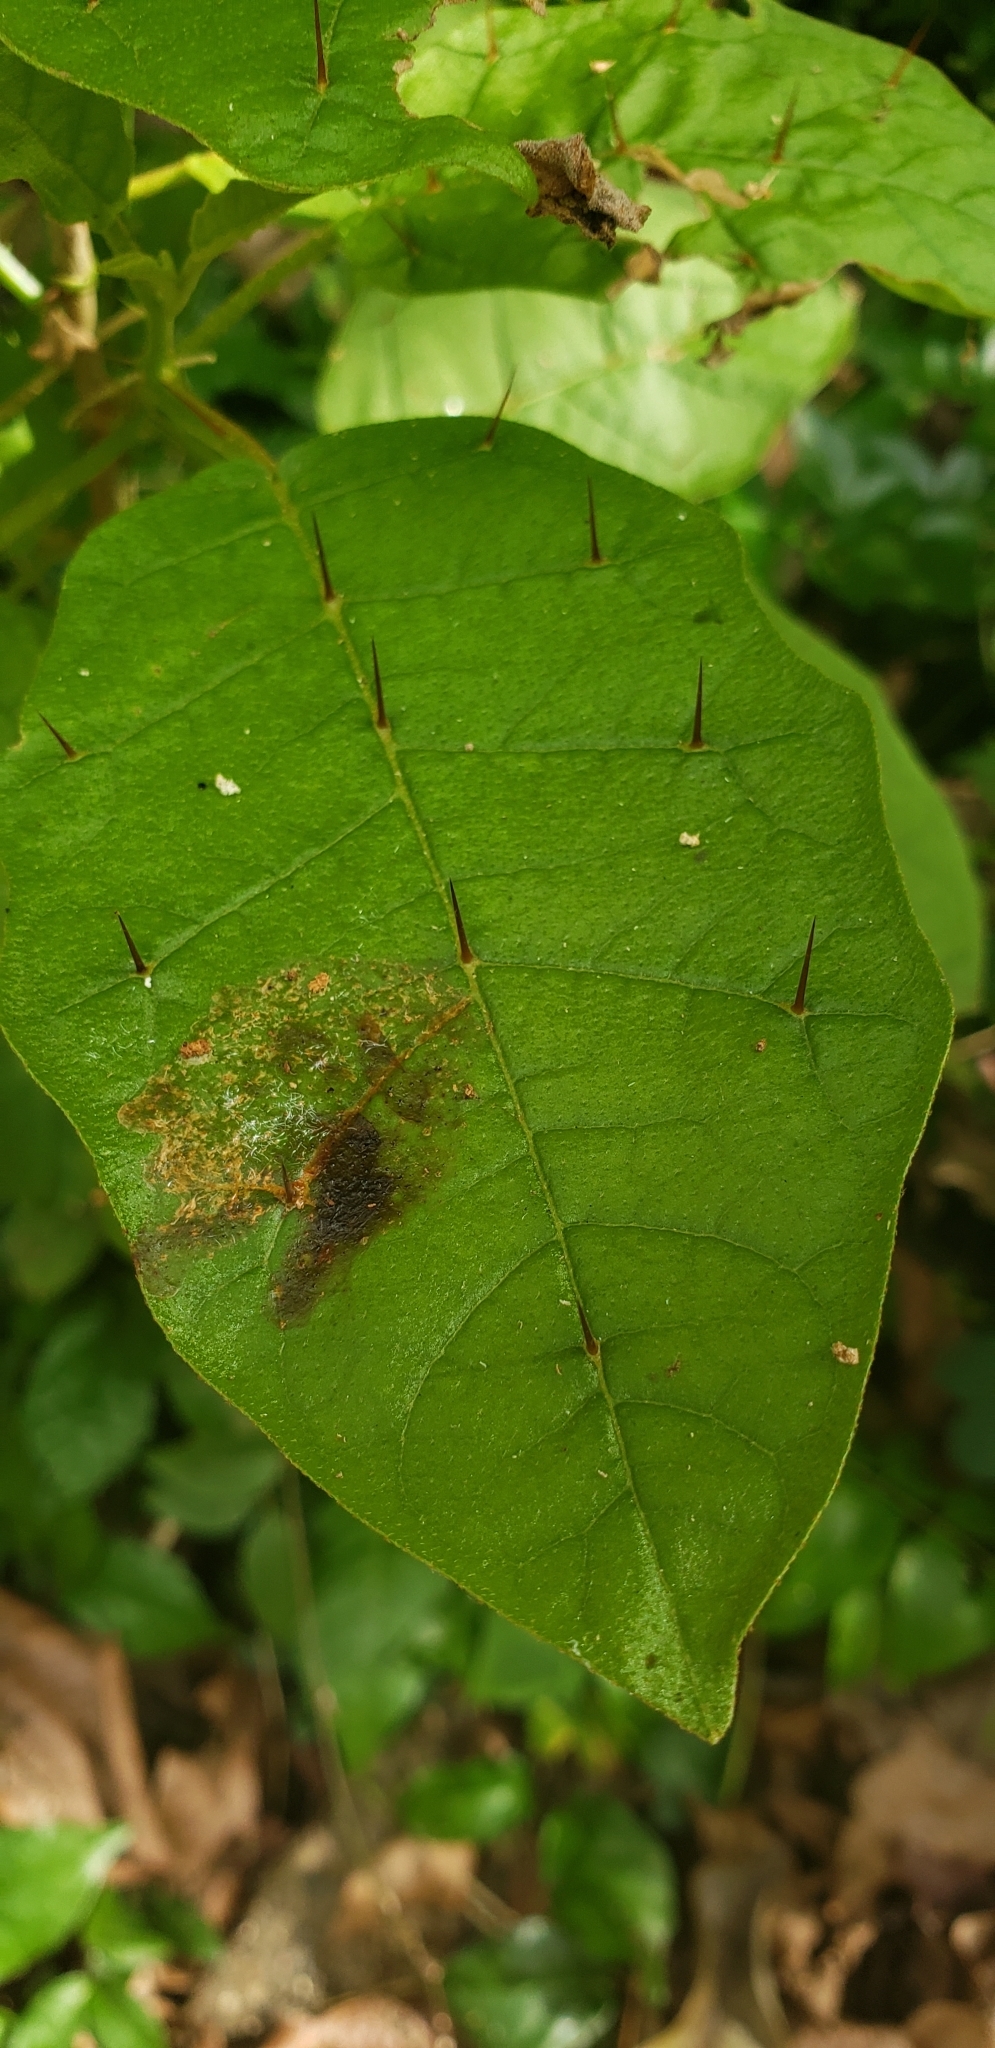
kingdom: Plantae
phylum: Tracheophyta
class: Magnoliopsida
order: Solanales
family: Solanaceae
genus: Solanum
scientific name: Solanum polygamum
